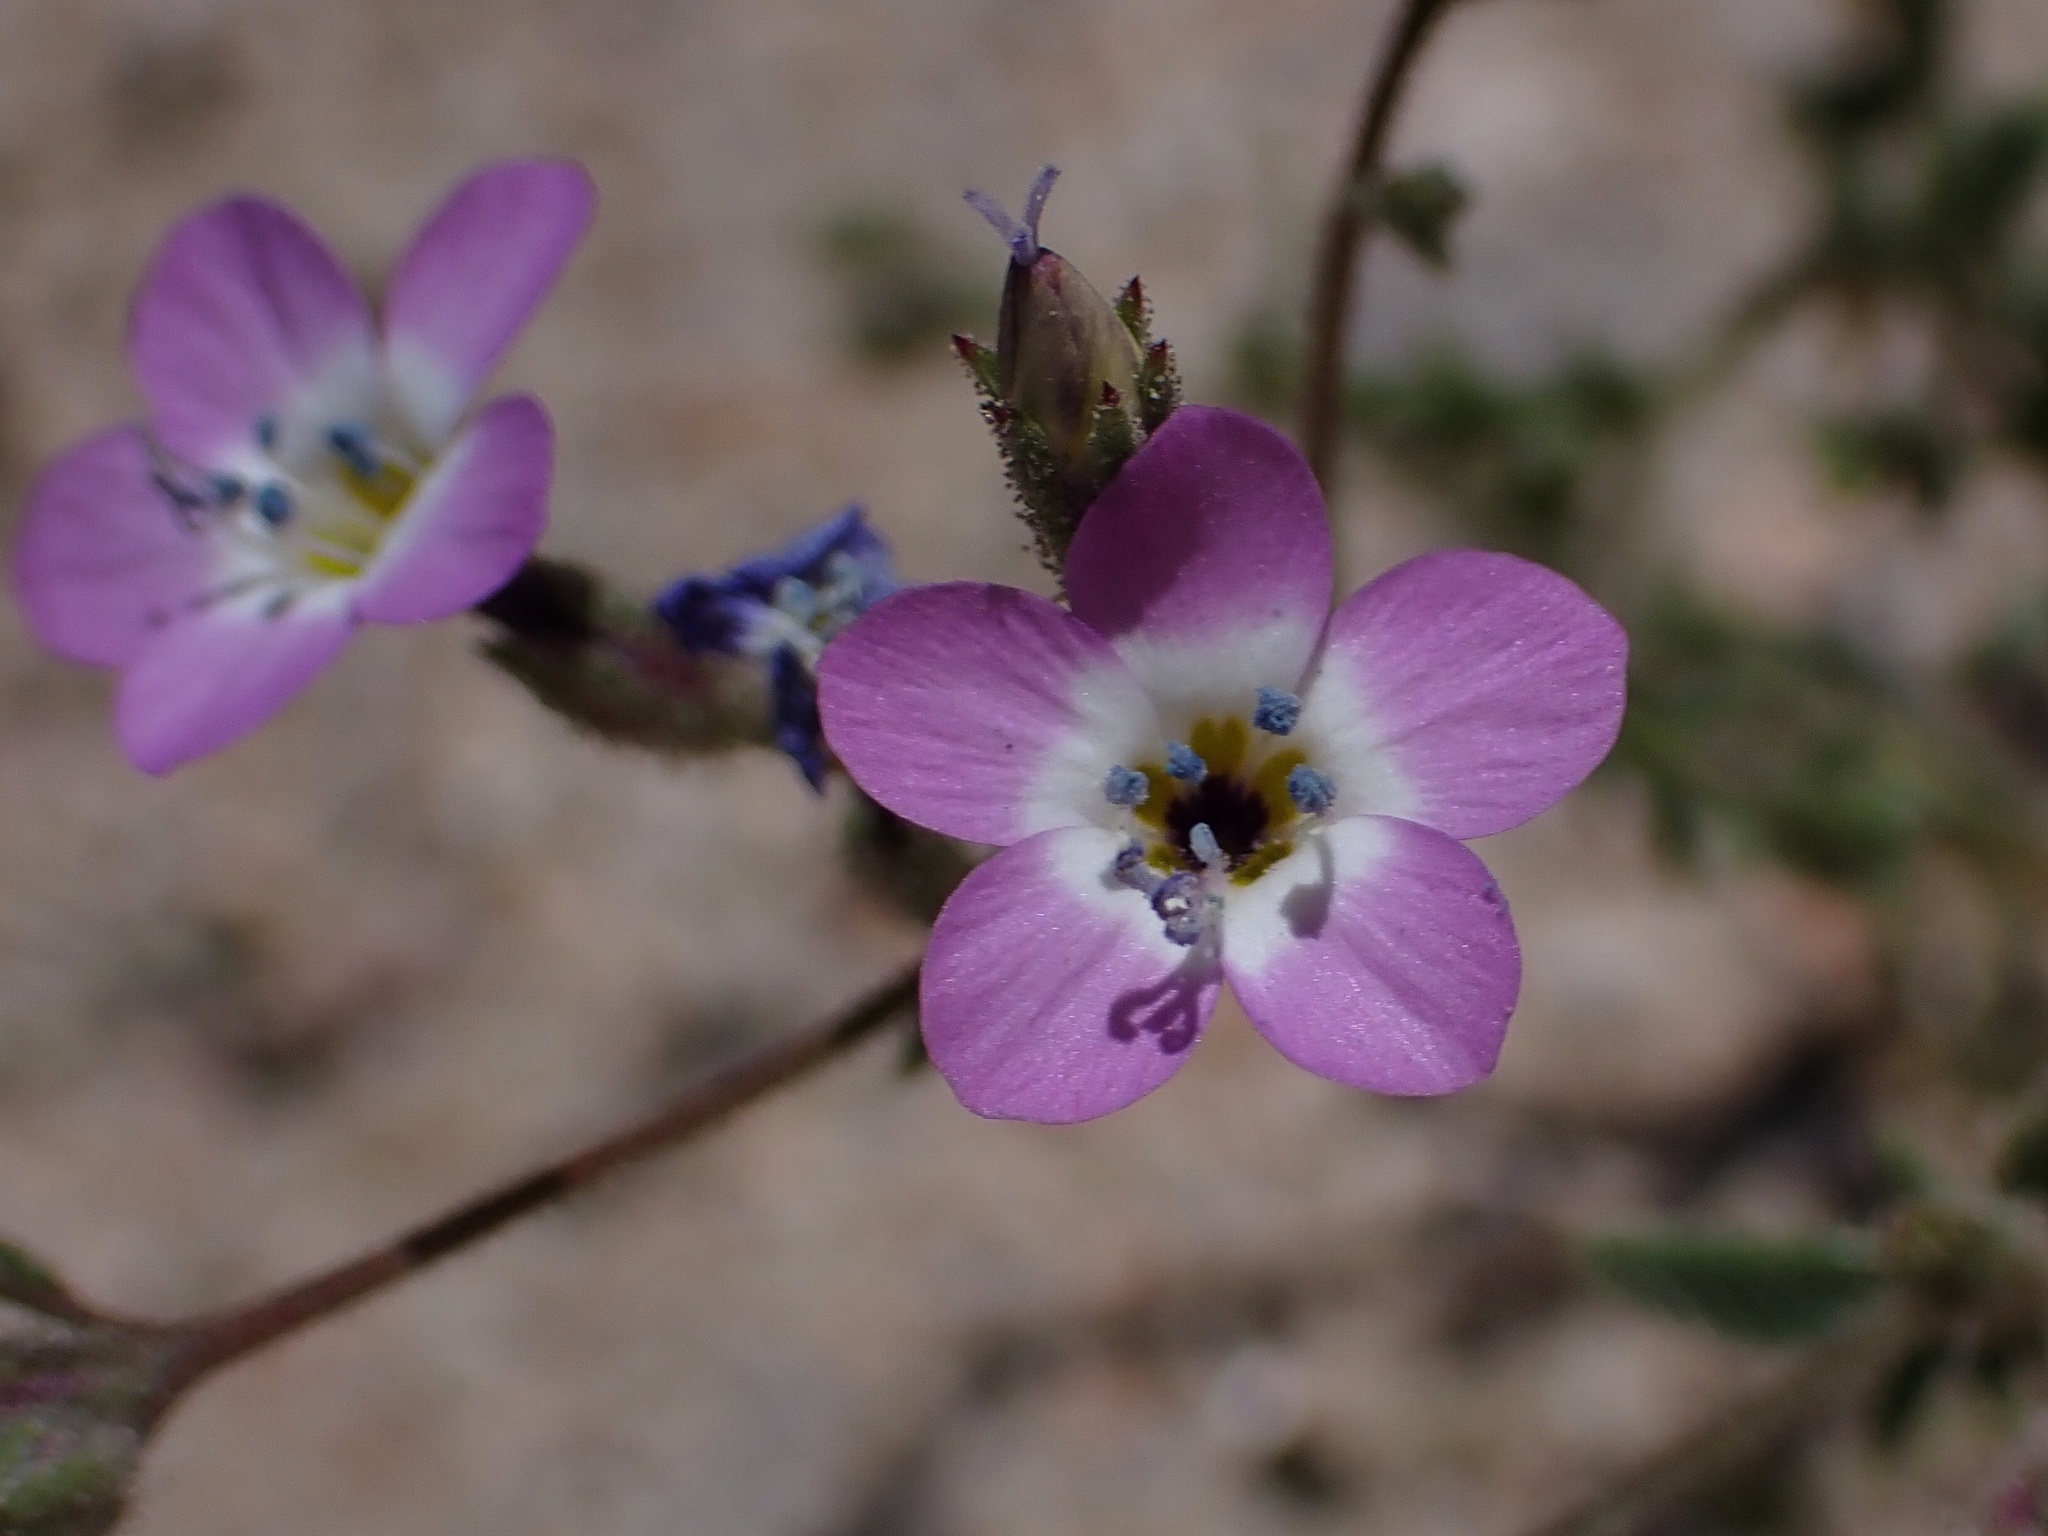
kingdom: Plantae
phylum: Tracheophyta
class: Magnoliopsida
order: Ericales
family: Polemoniaceae
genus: Gilia
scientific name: Gilia brecciarum
